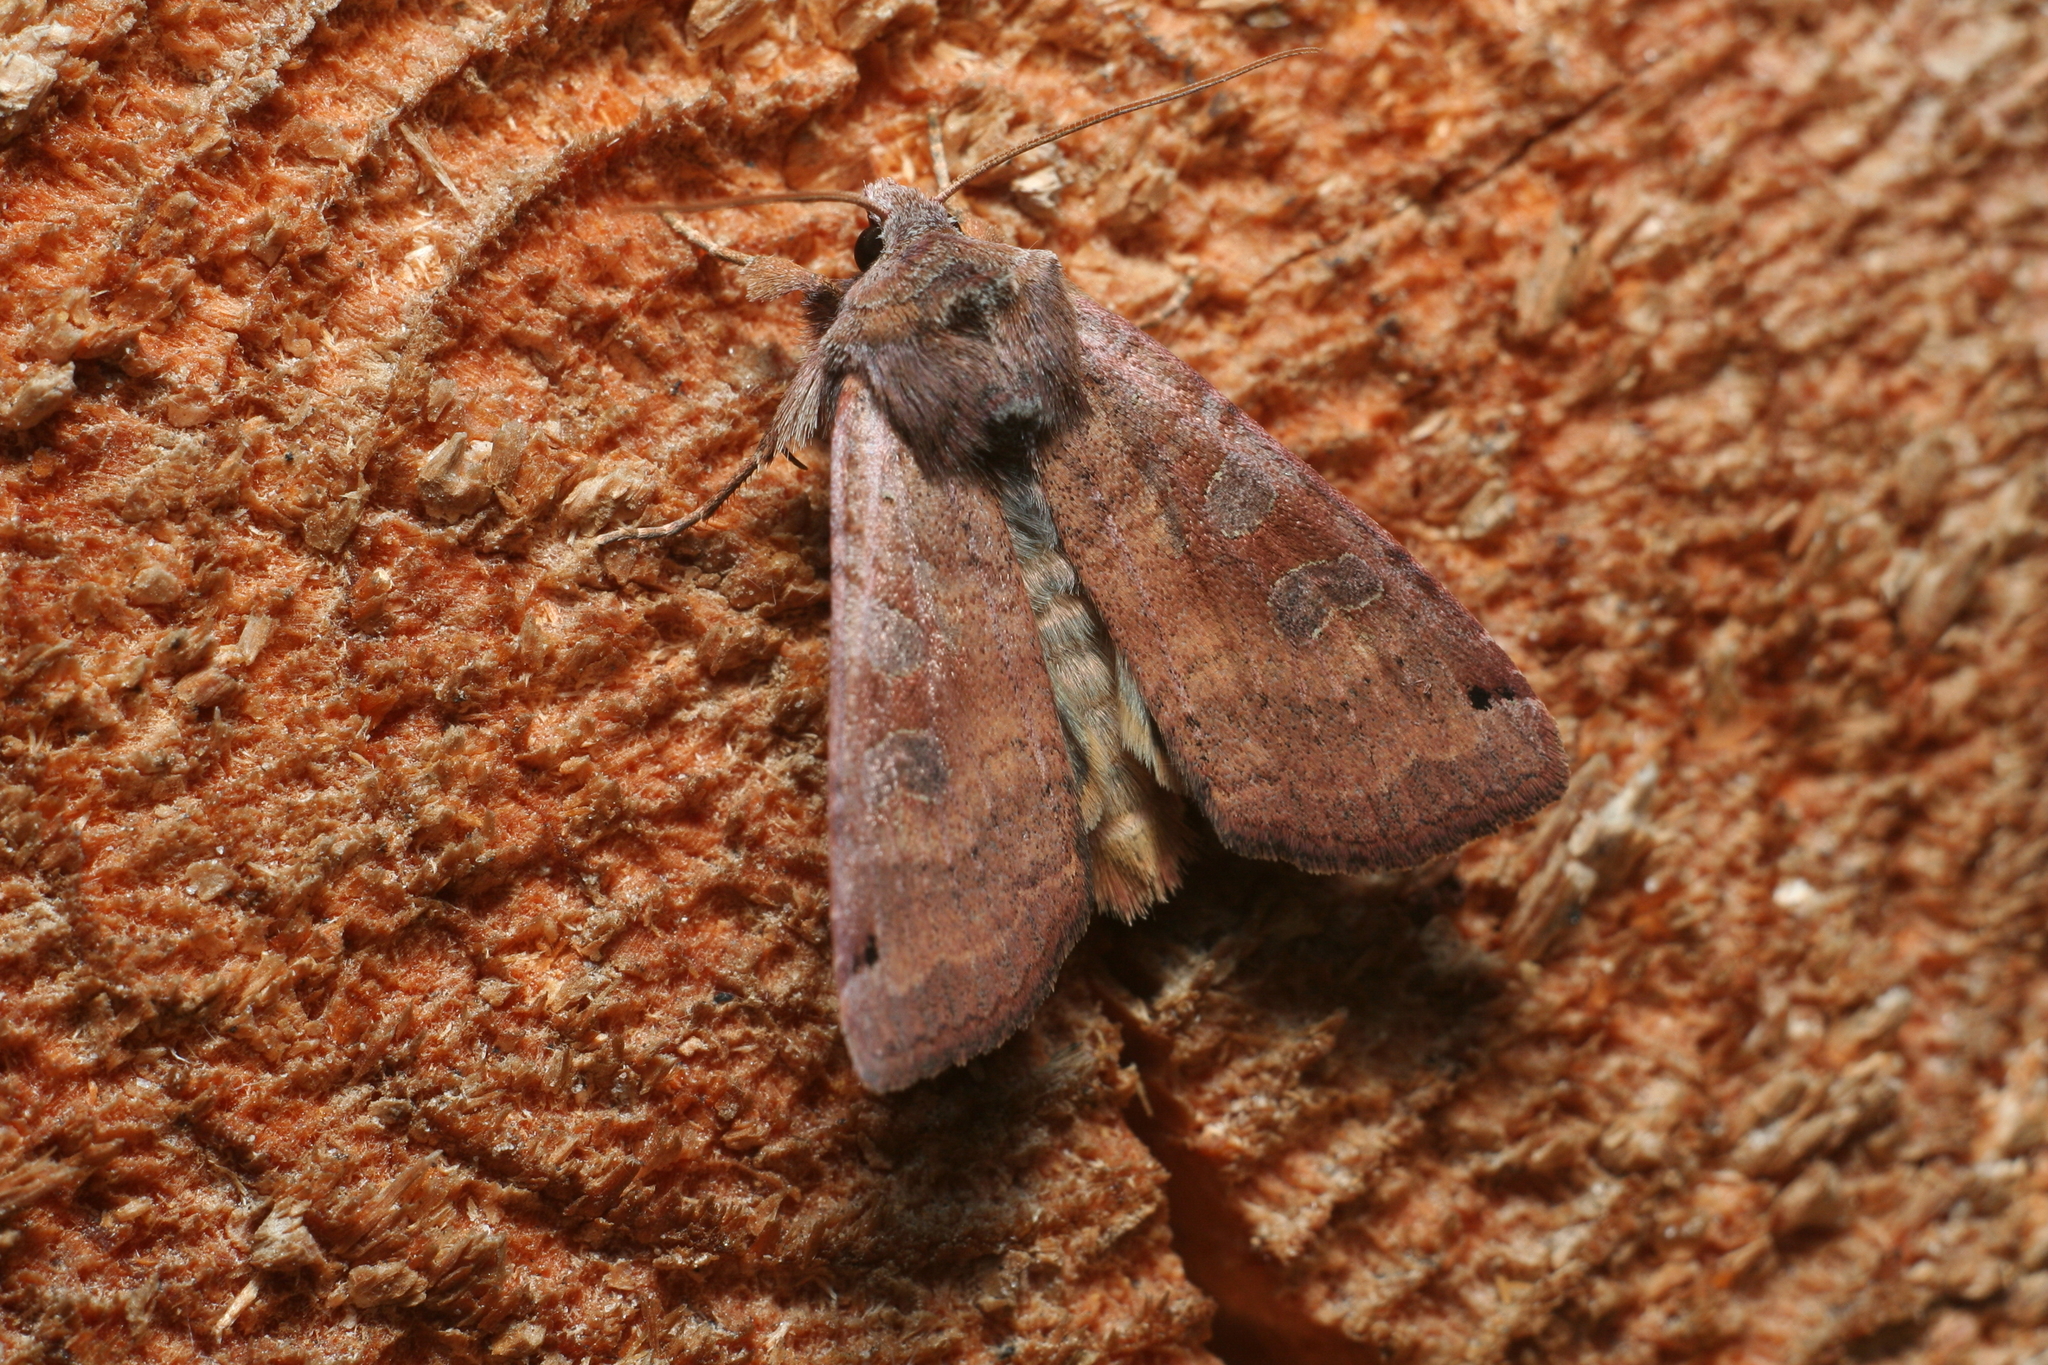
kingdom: Animalia
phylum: Arthropoda
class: Insecta
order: Lepidoptera
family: Noctuidae
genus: Xestia
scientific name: Xestia baja
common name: Dotted clay
